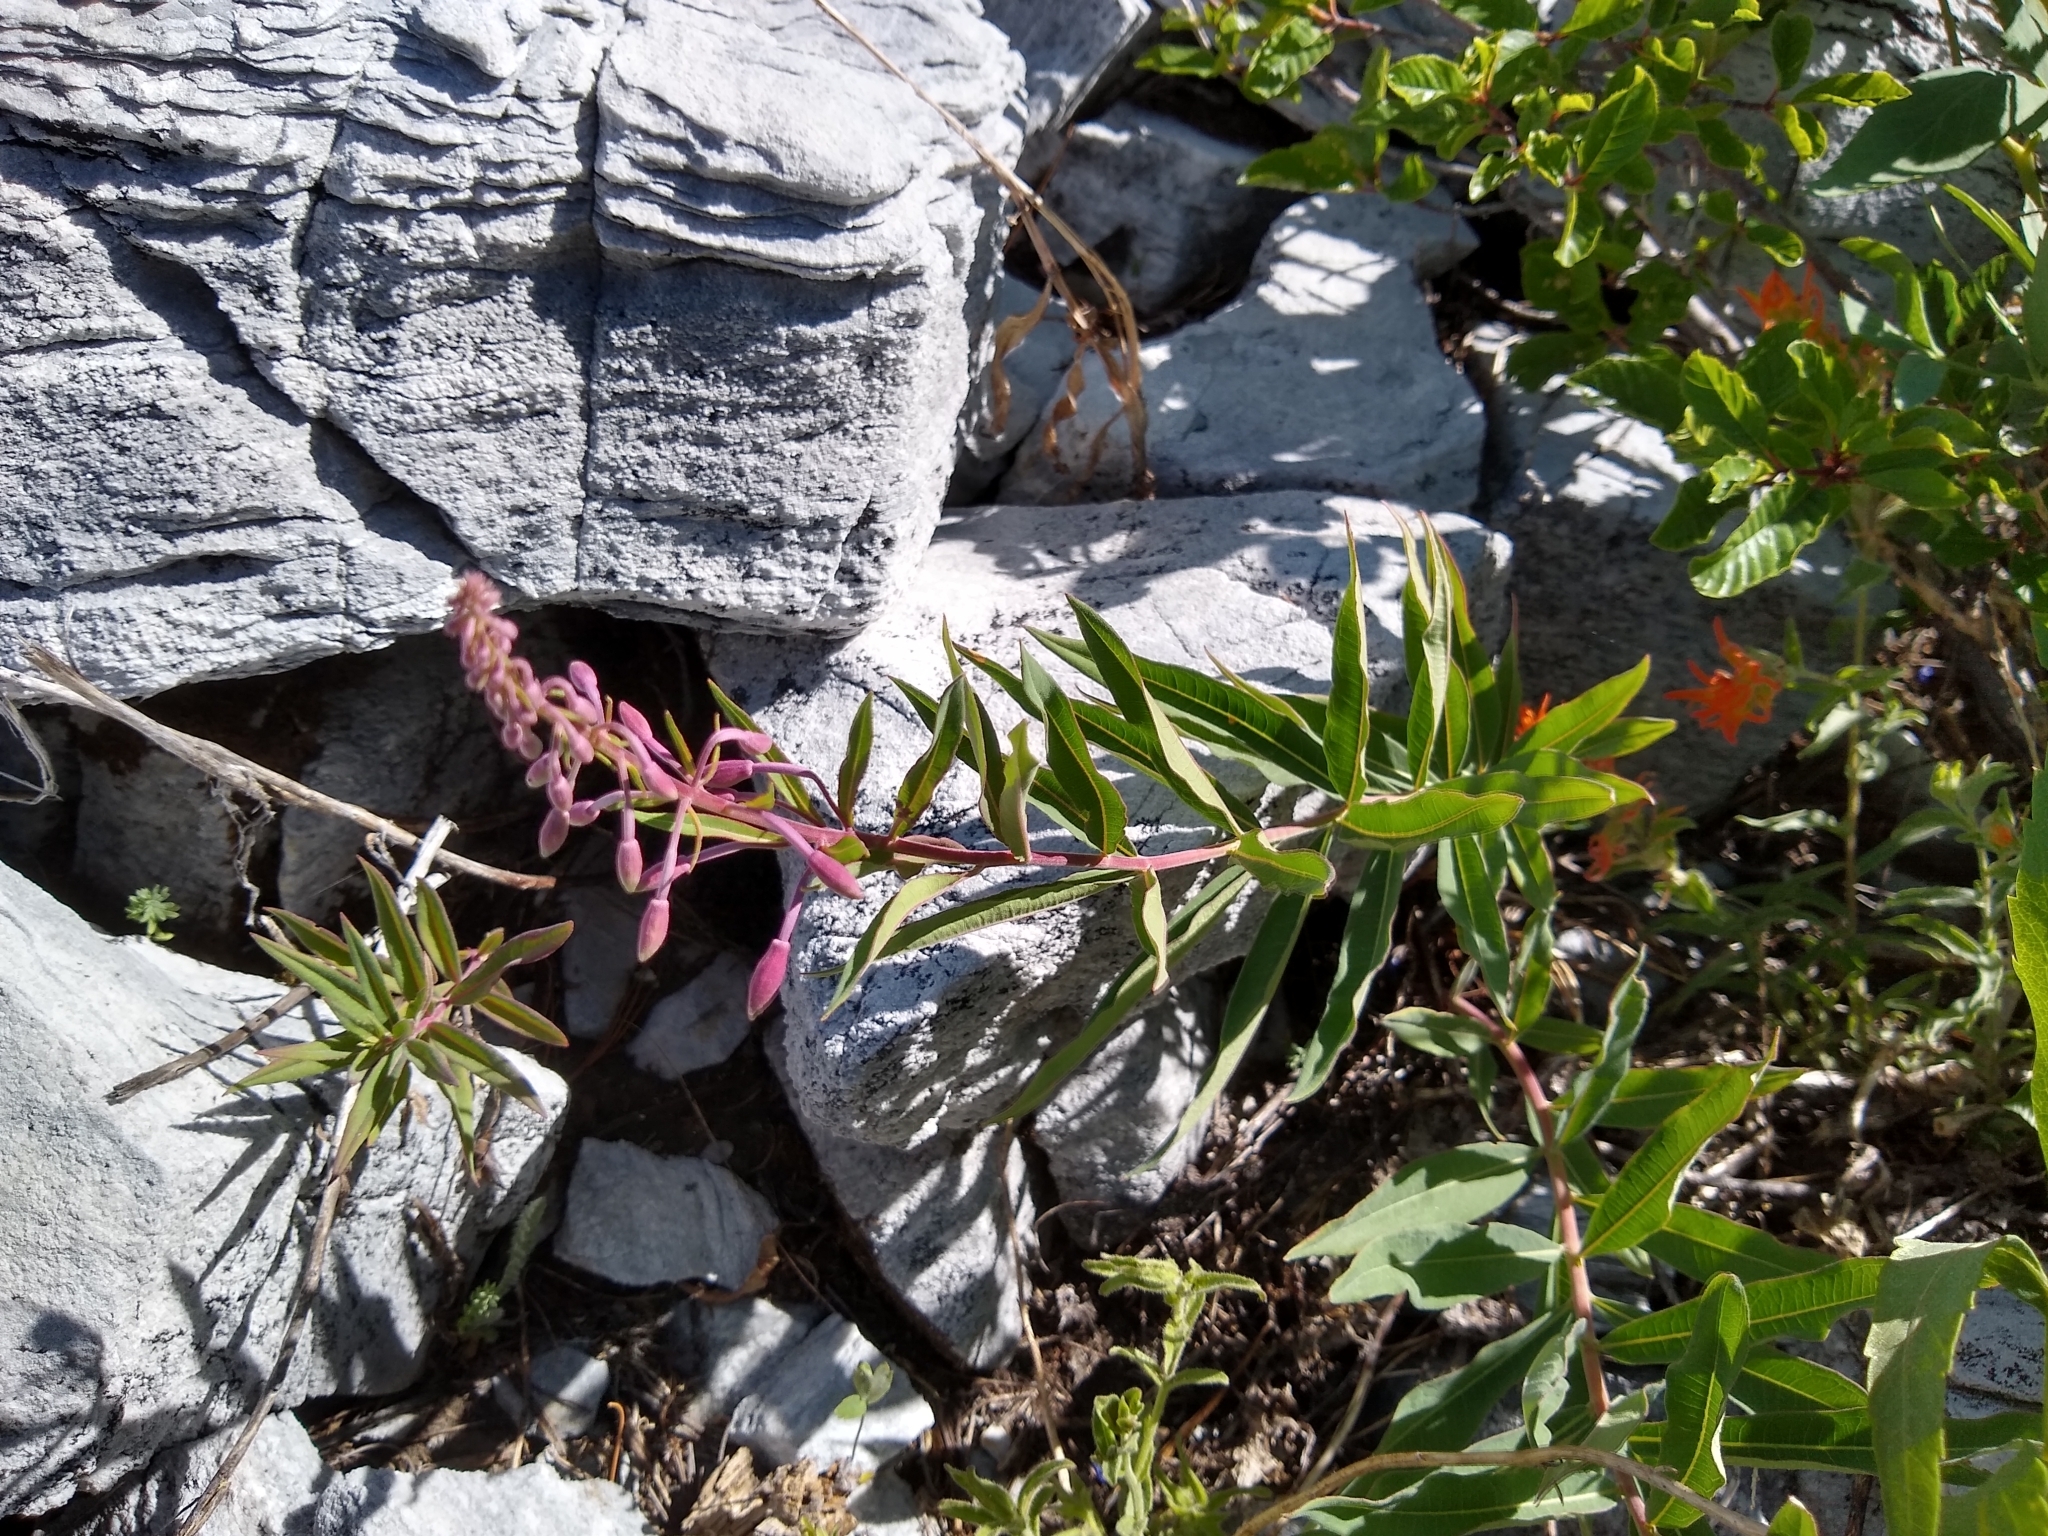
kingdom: Plantae
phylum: Tracheophyta
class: Magnoliopsida
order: Myrtales
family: Onagraceae
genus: Chamaenerion
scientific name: Chamaenerion angustifolium
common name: Fireweed
